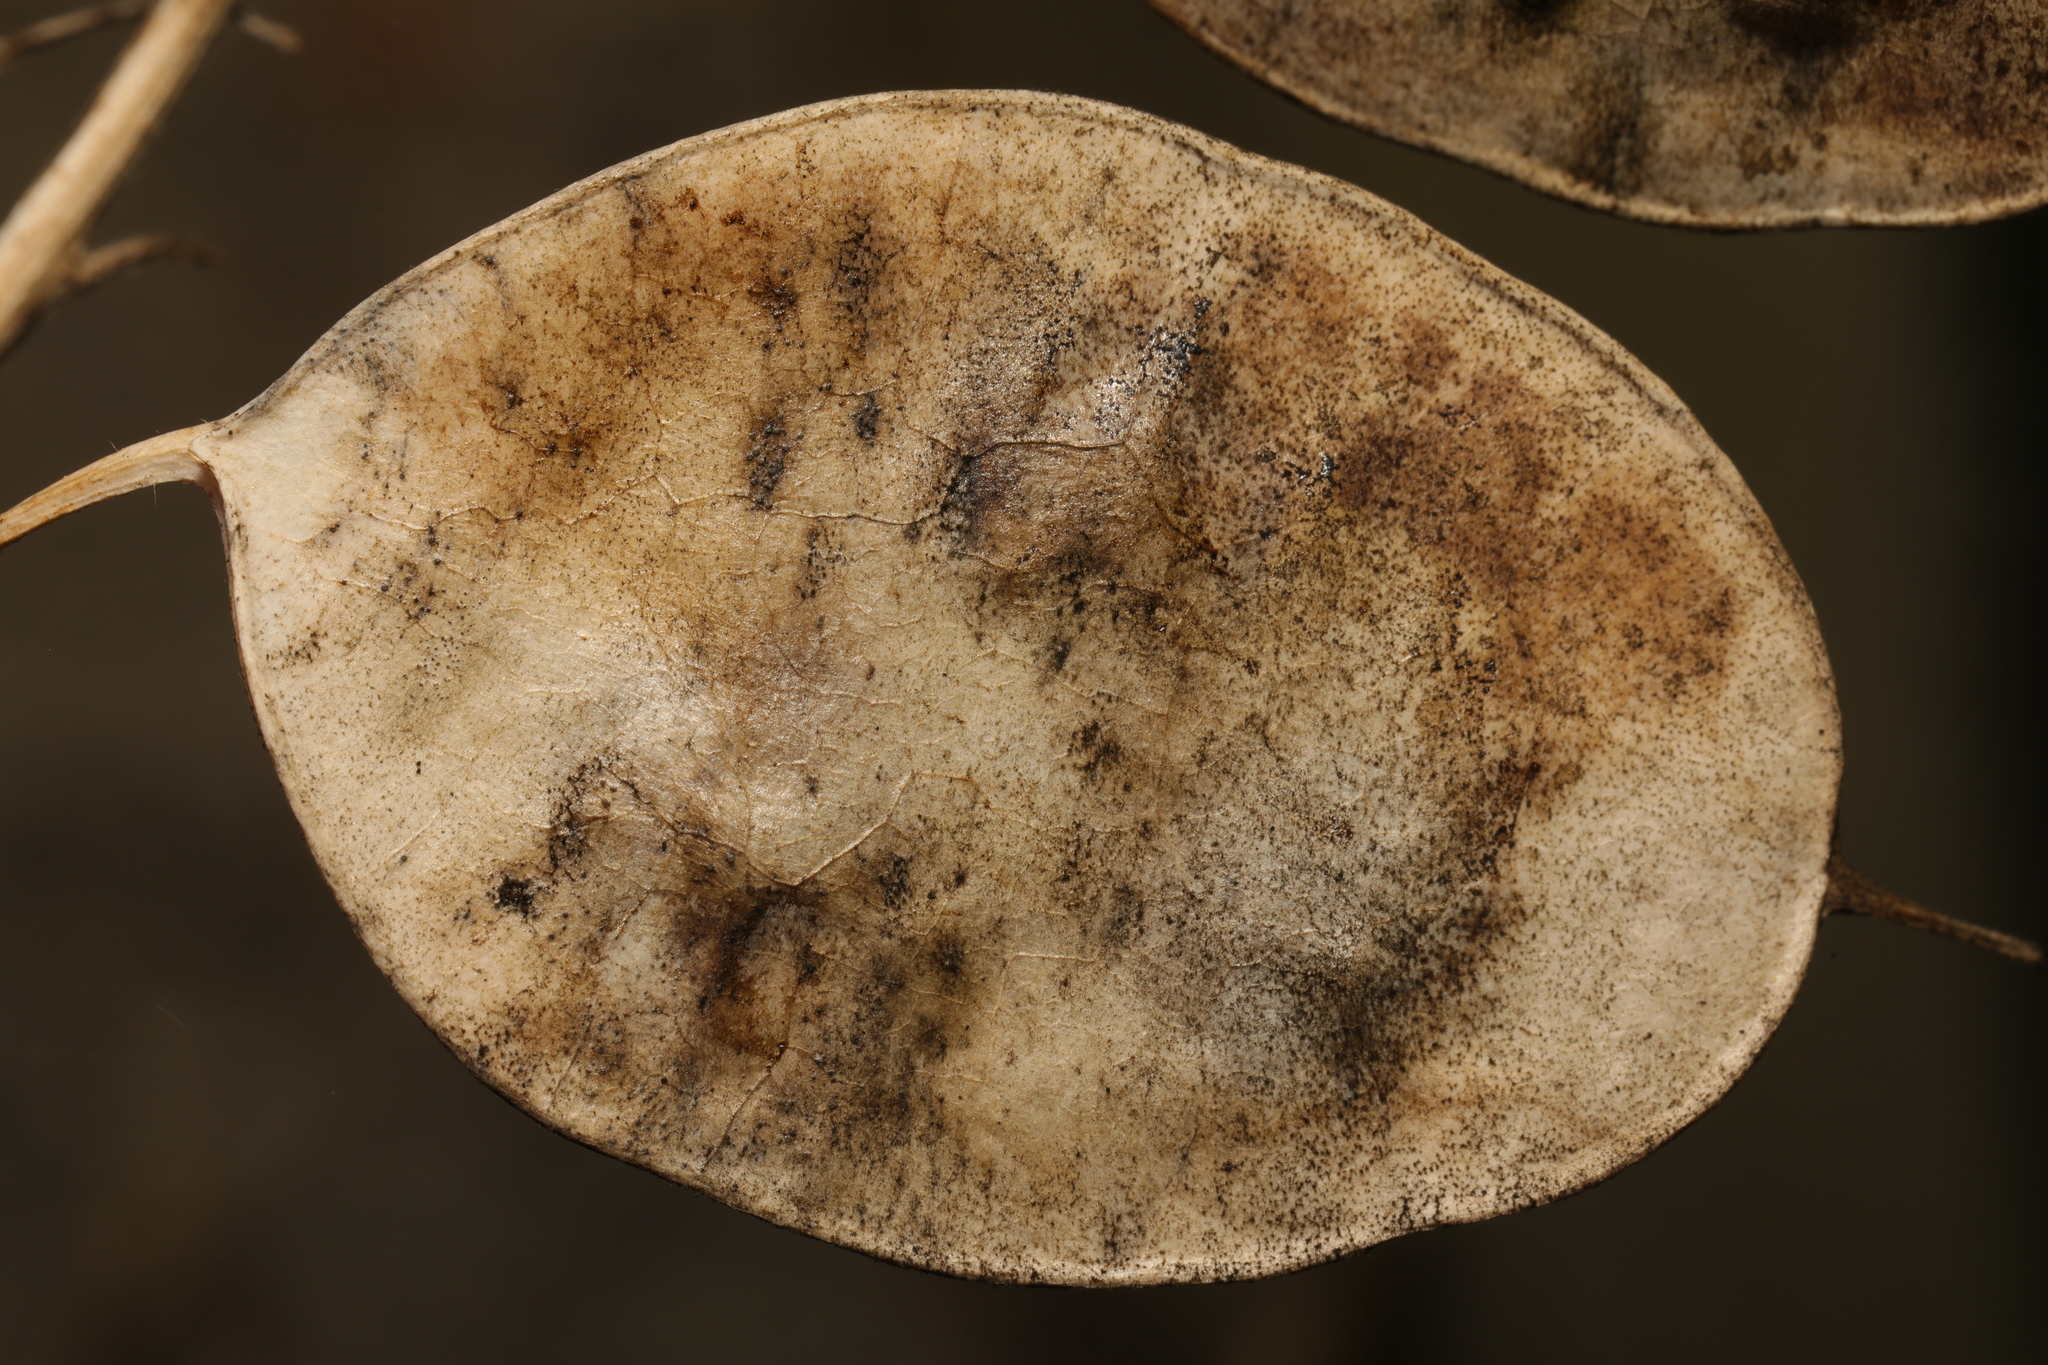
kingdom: Plantae
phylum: Tracheophyta
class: Magnoliopsida
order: Brassicales
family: Brassicaceae
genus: Lunaria
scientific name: Lunaria annua
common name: Honesty
